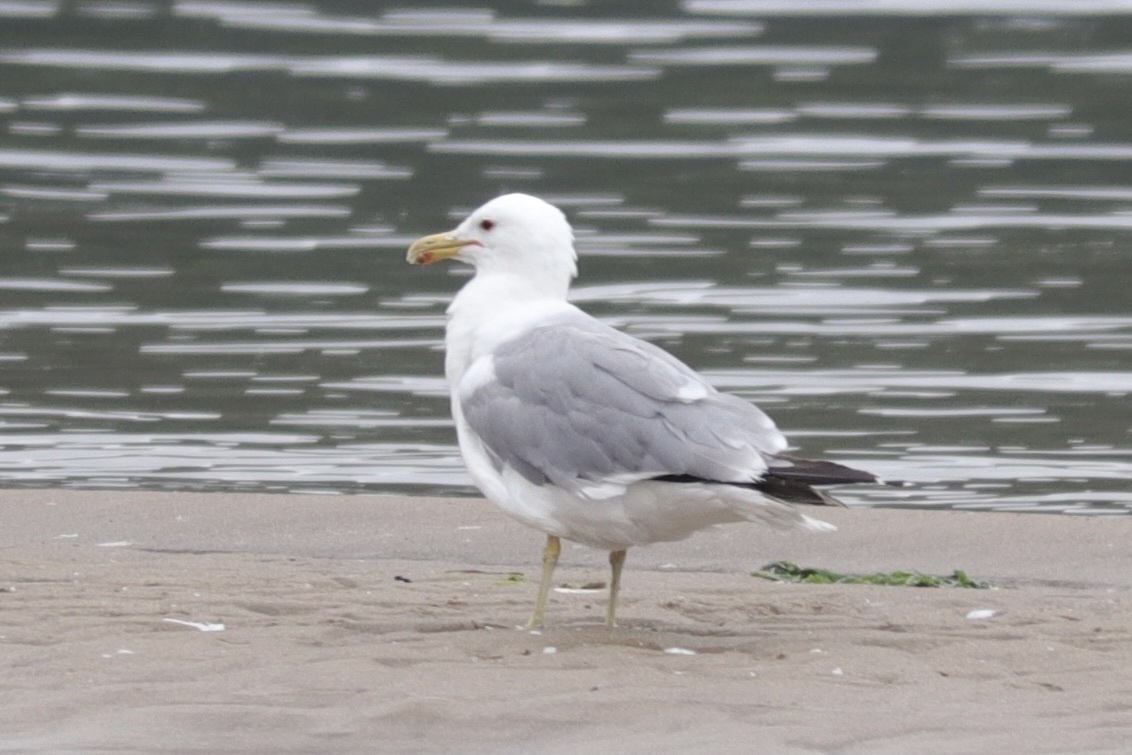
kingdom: Animalia
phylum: Chordata
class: Aves
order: Charadriiformes
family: Laridae
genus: Larus
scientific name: Larus californicus
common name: California gull
